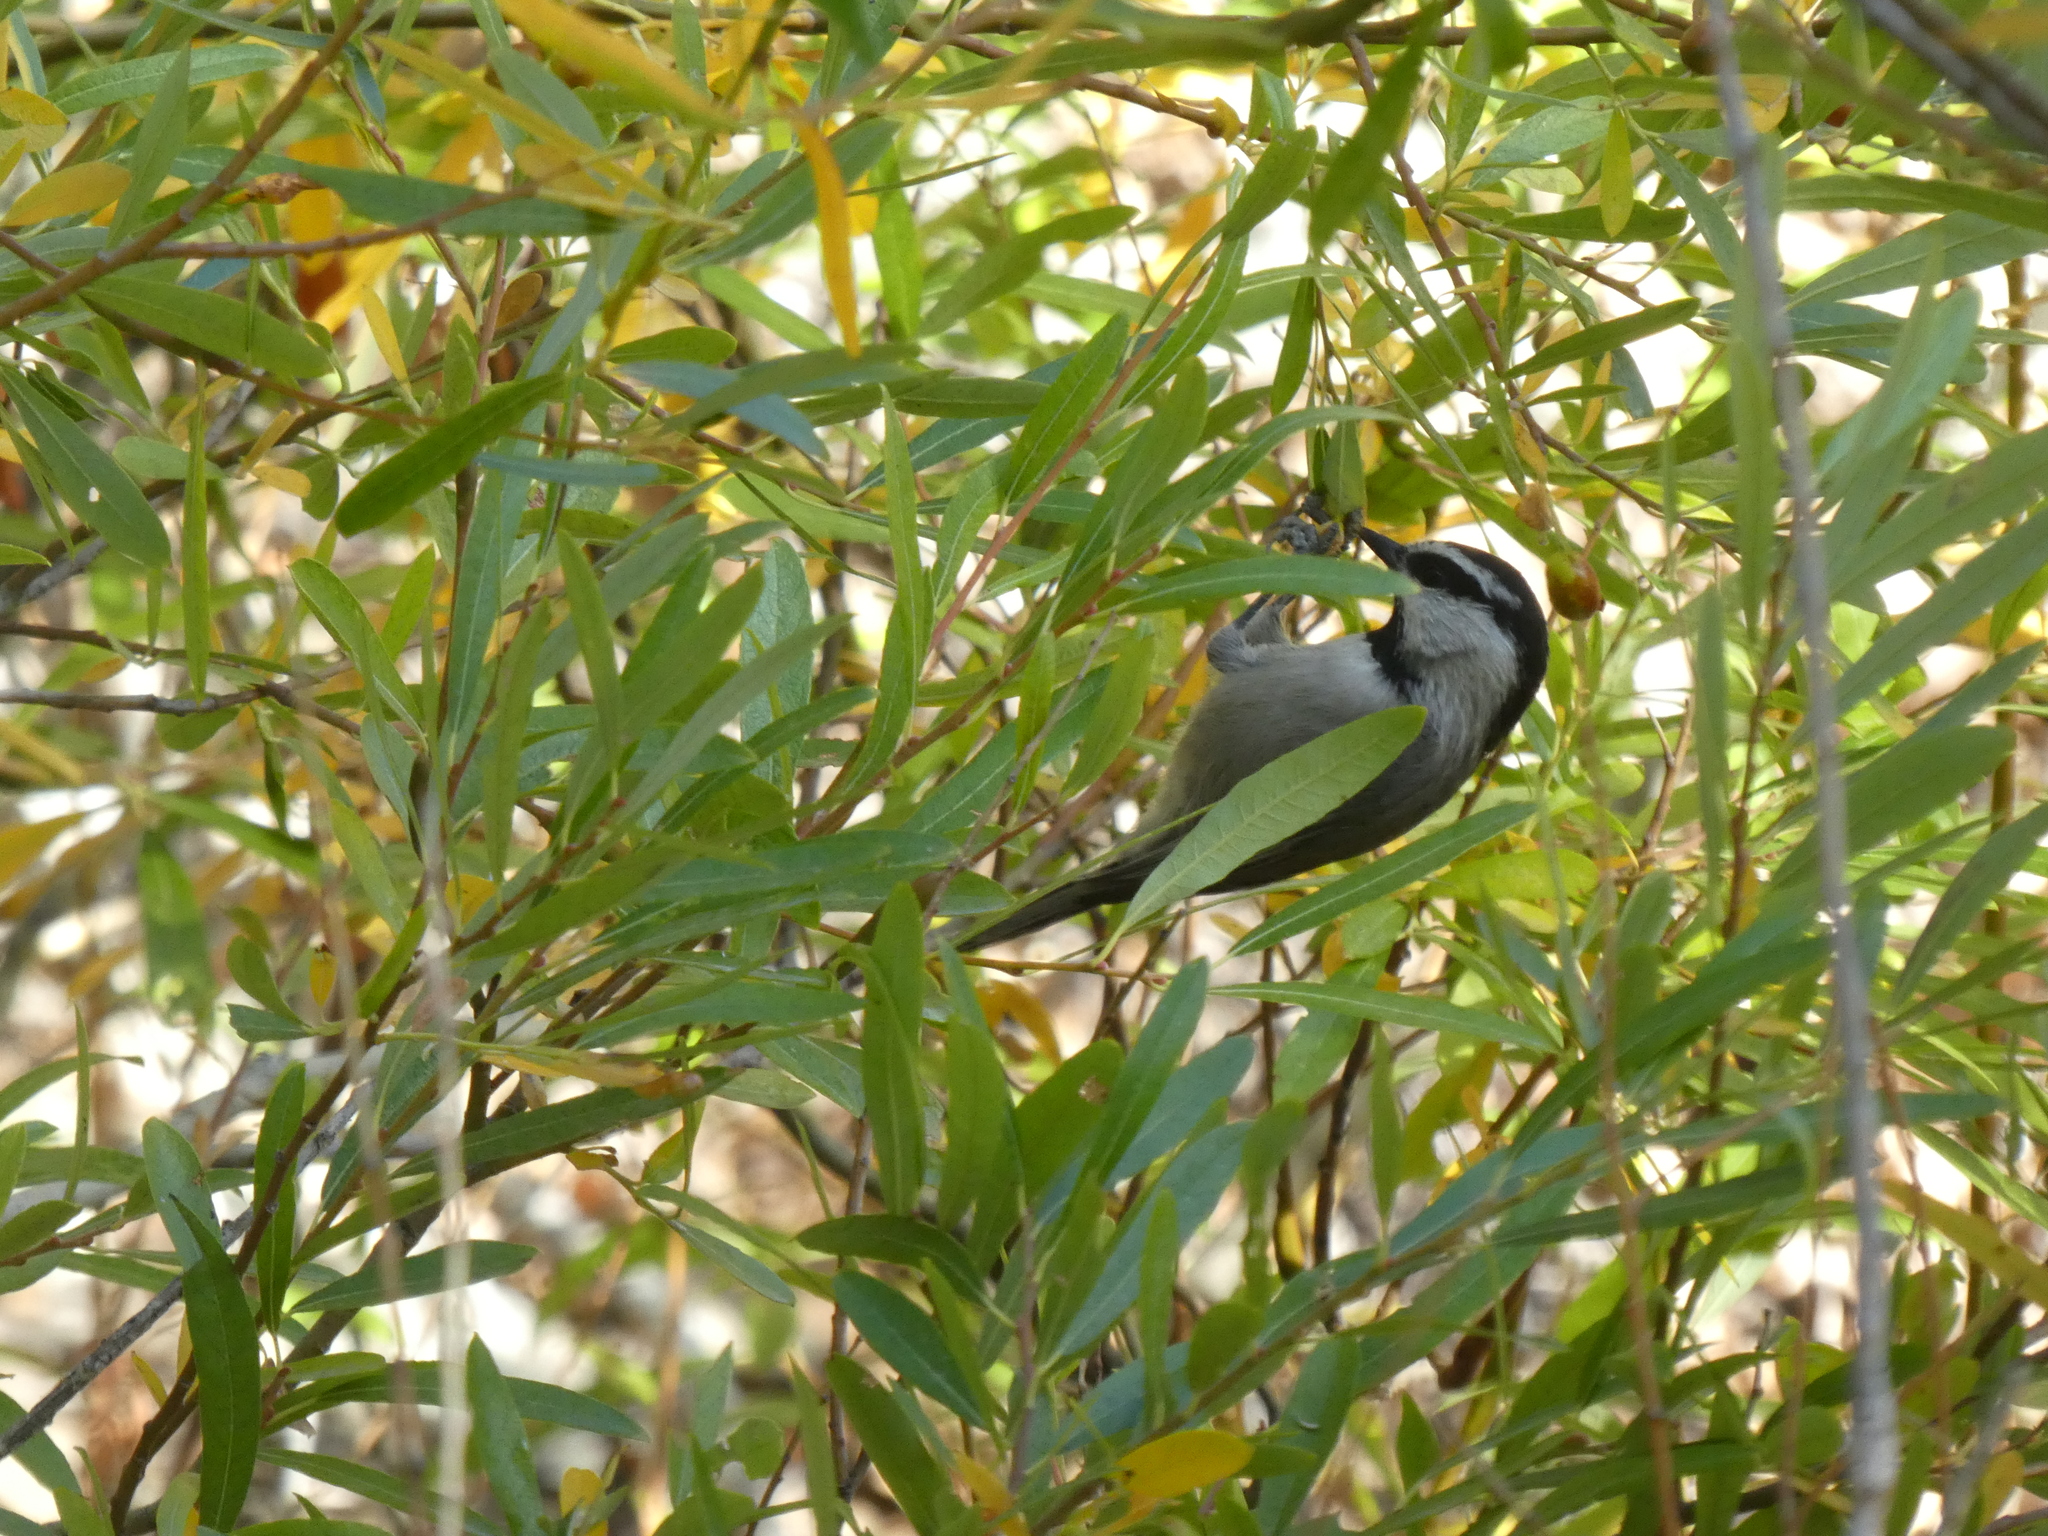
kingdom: Animalia
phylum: Chordata
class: Aves
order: Passeriformes
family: Paridae
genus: Poecile
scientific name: Poecile gambeli
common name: Mountain chickadee
